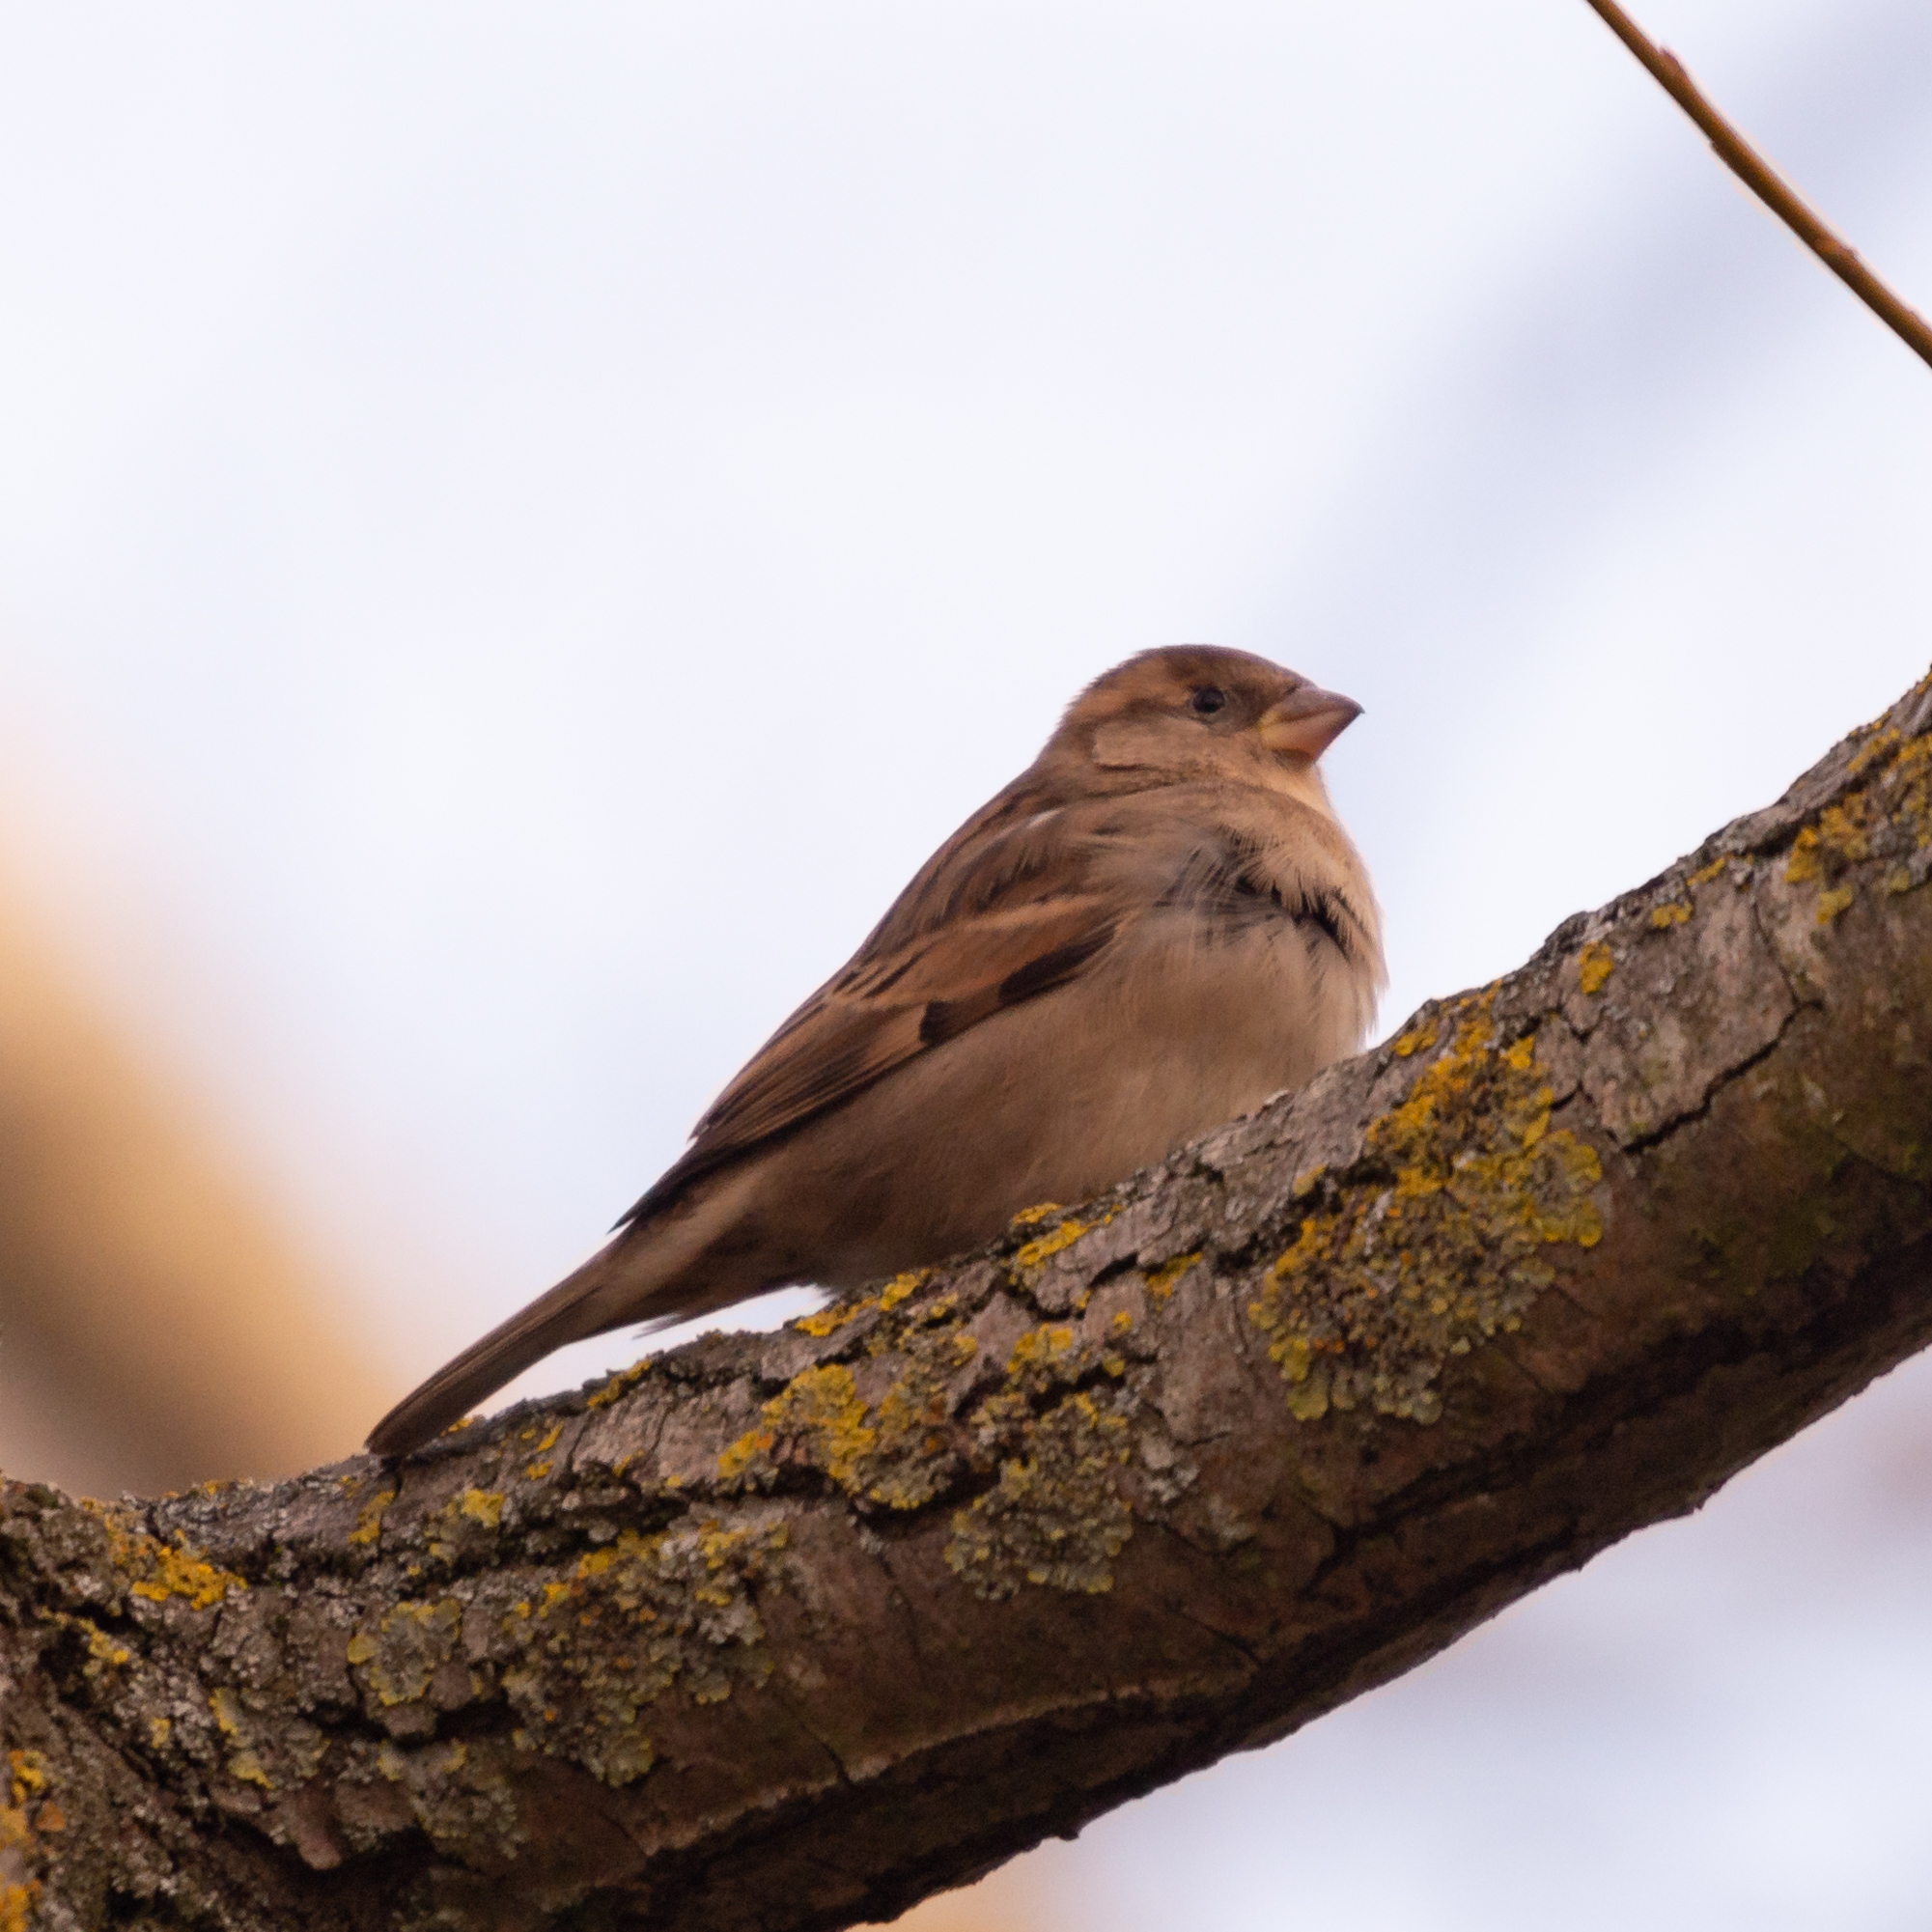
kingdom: Animalia
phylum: Chordata
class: Aves
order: Passeriformes
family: Passeridae
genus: Passer
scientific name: Passer domesticus
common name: House sparrow
